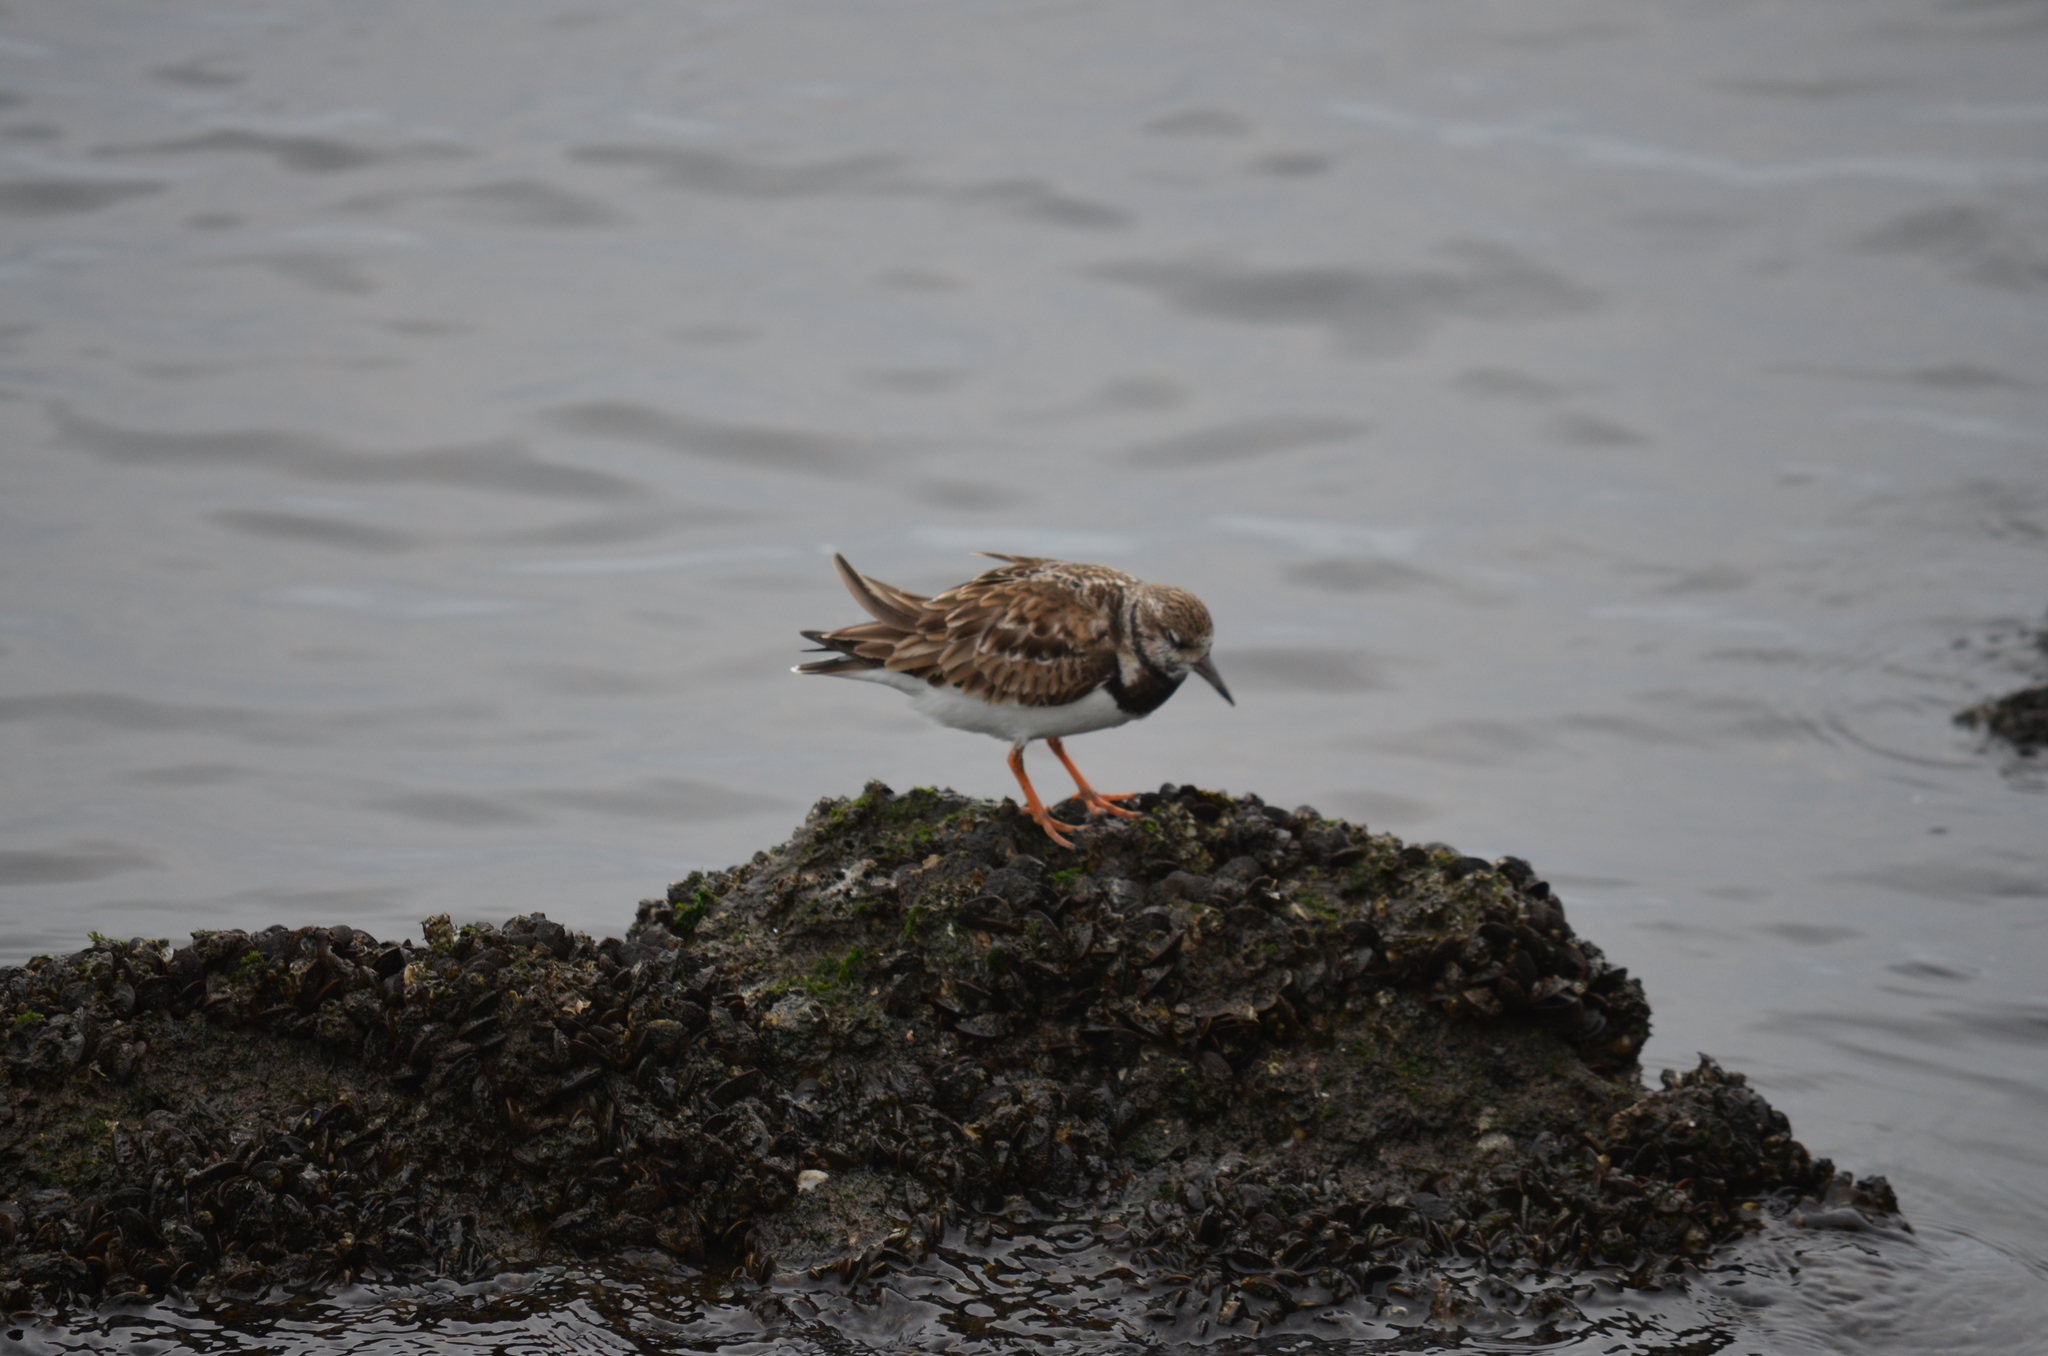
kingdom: Animalia
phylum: Chordata
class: Aves
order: Charadriiformes
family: Scolopacidae
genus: Arenaria
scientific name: Arenaria interpres
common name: Ruddy turnstone
